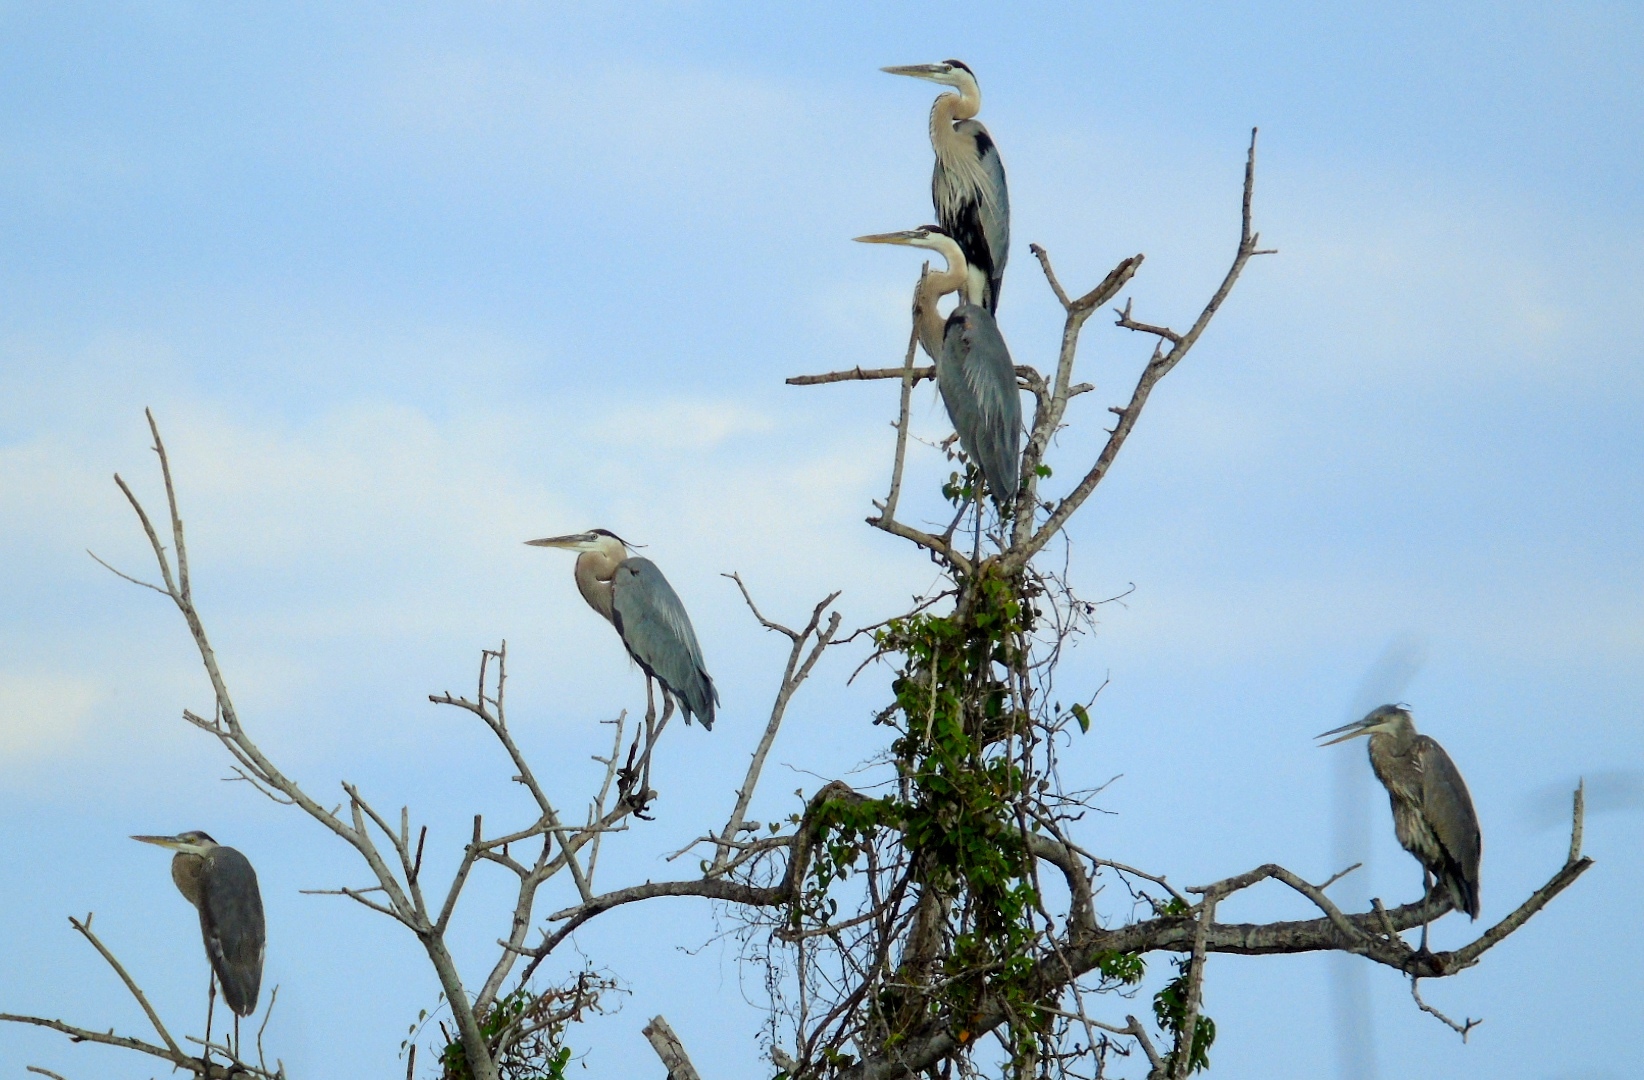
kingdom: Animalia
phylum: Chordata
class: Aves
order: Pelecaniformes
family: Ardeidae
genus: Ardea
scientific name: Ardea herodias
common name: Great blue heron
